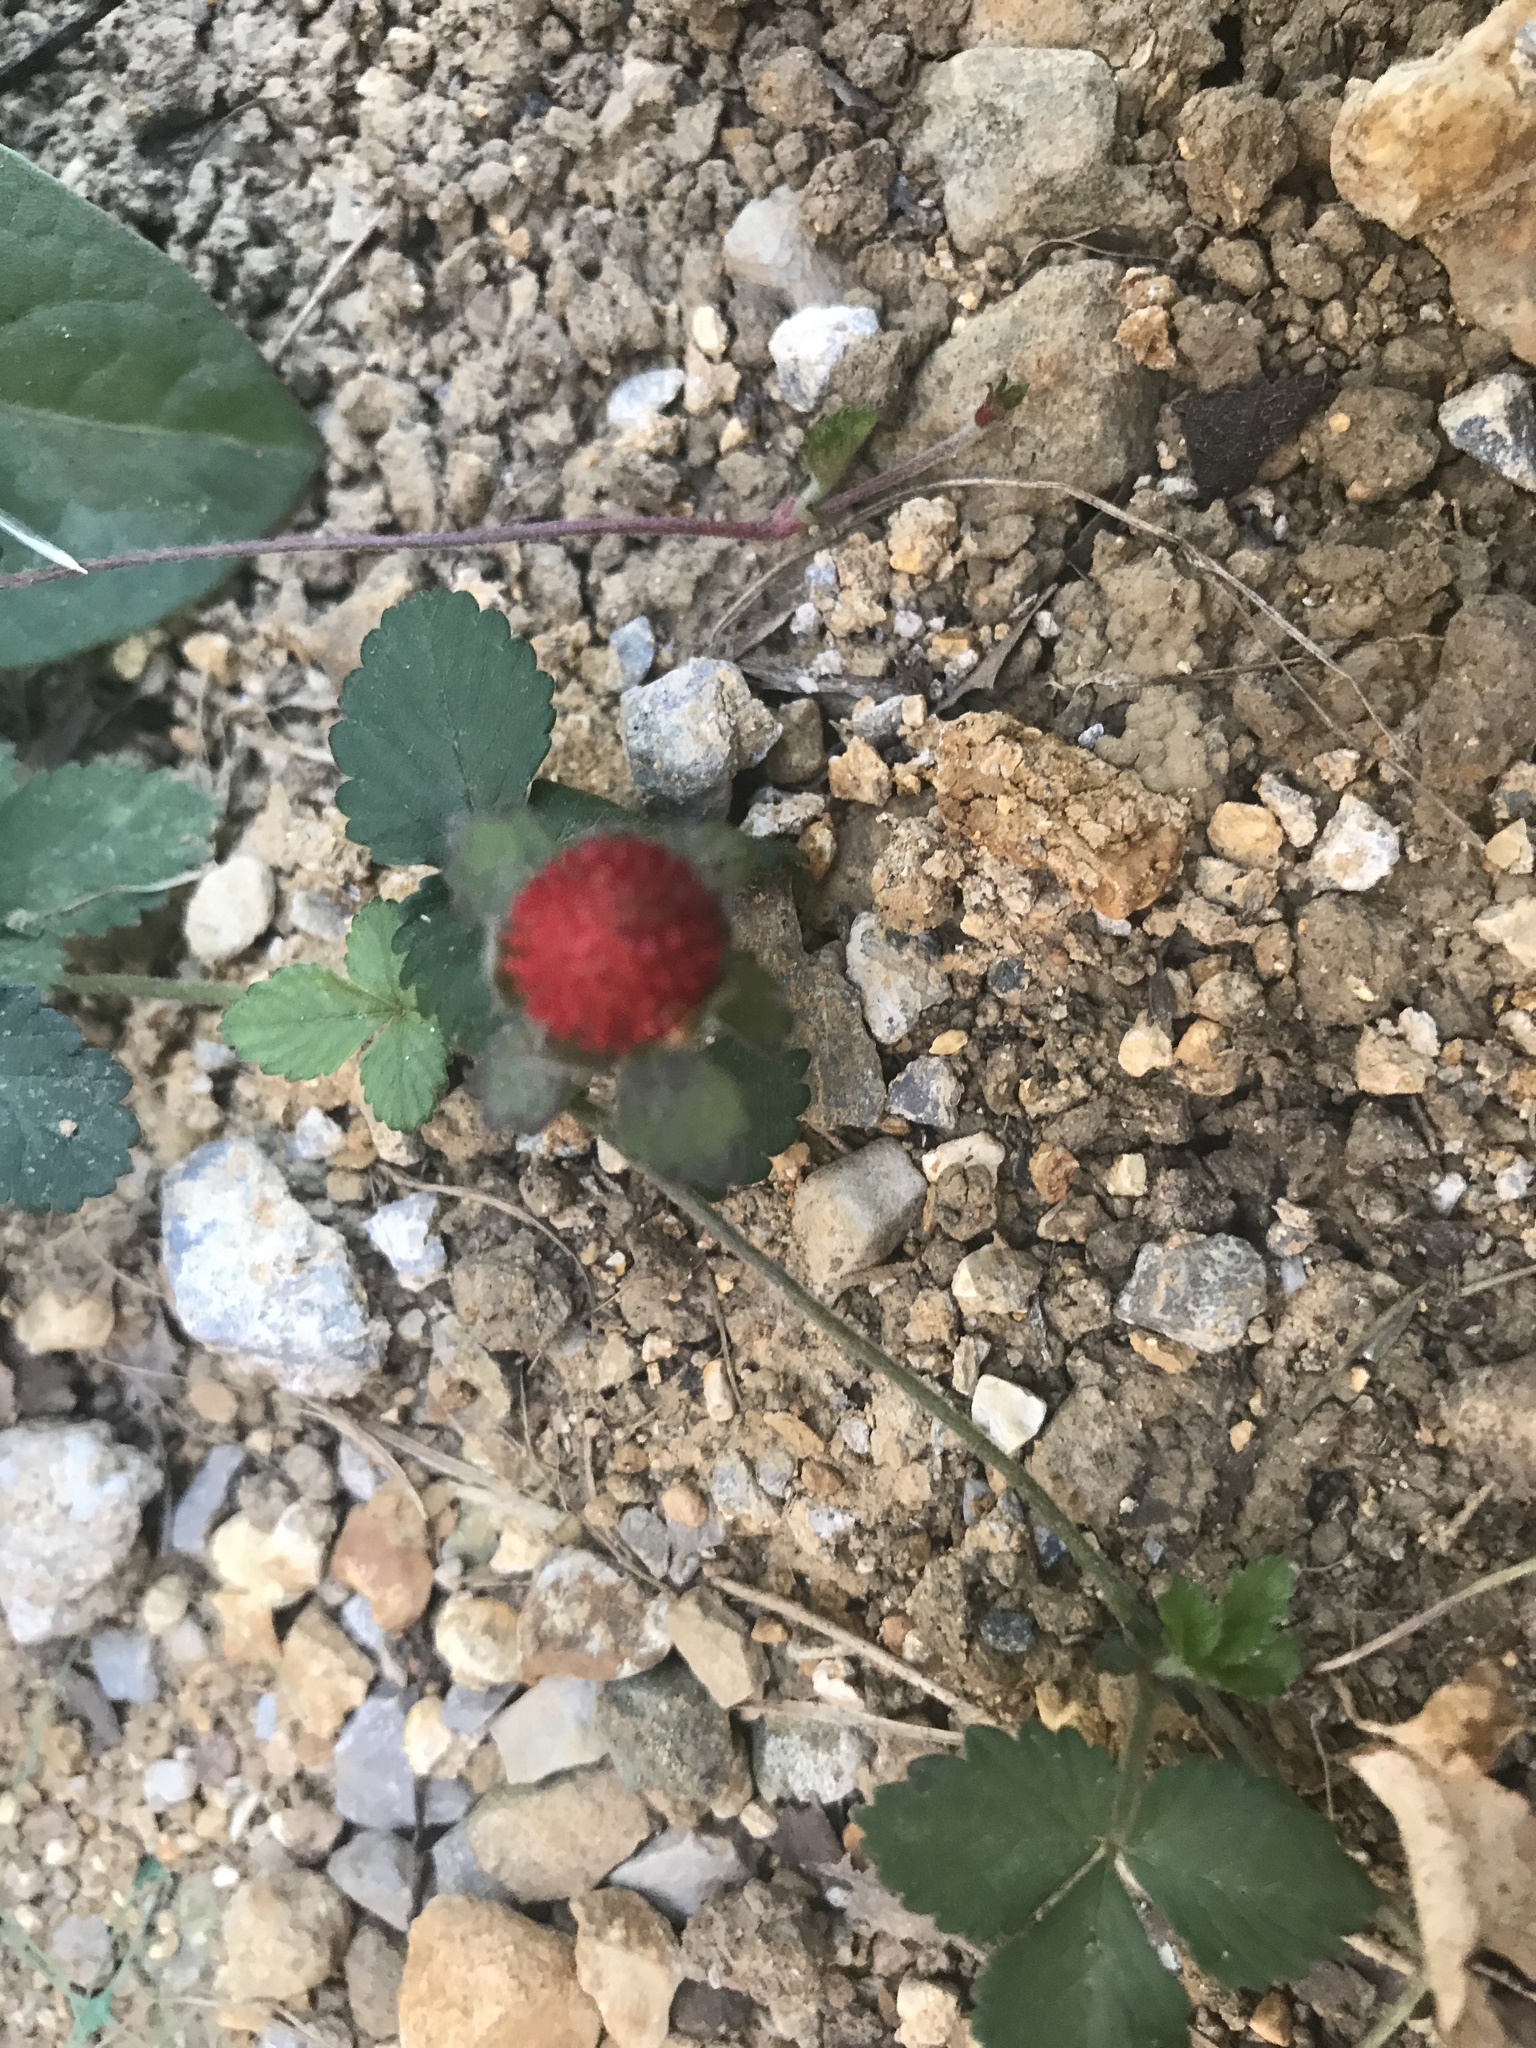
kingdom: Plantae
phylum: Tracheophyta
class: Magnoliopsida
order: Rosales
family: Rosaceae
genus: Potentilla
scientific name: Potentilla indica
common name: Yellow-flowered strawberry
